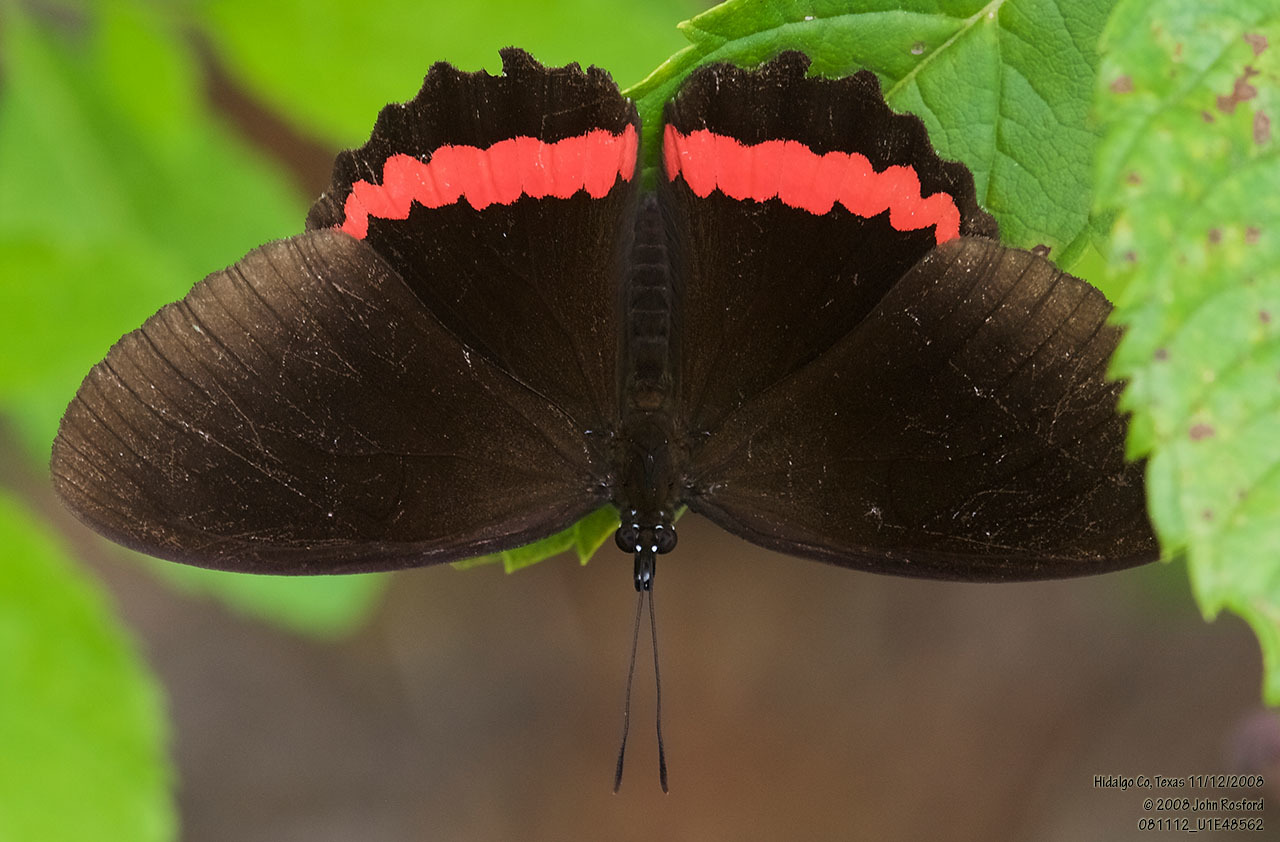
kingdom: Animalia
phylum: Arthropoda
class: Insecta
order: Lepidoptera
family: Nymphalidae
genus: Biblis
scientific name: Biblis aganisa
